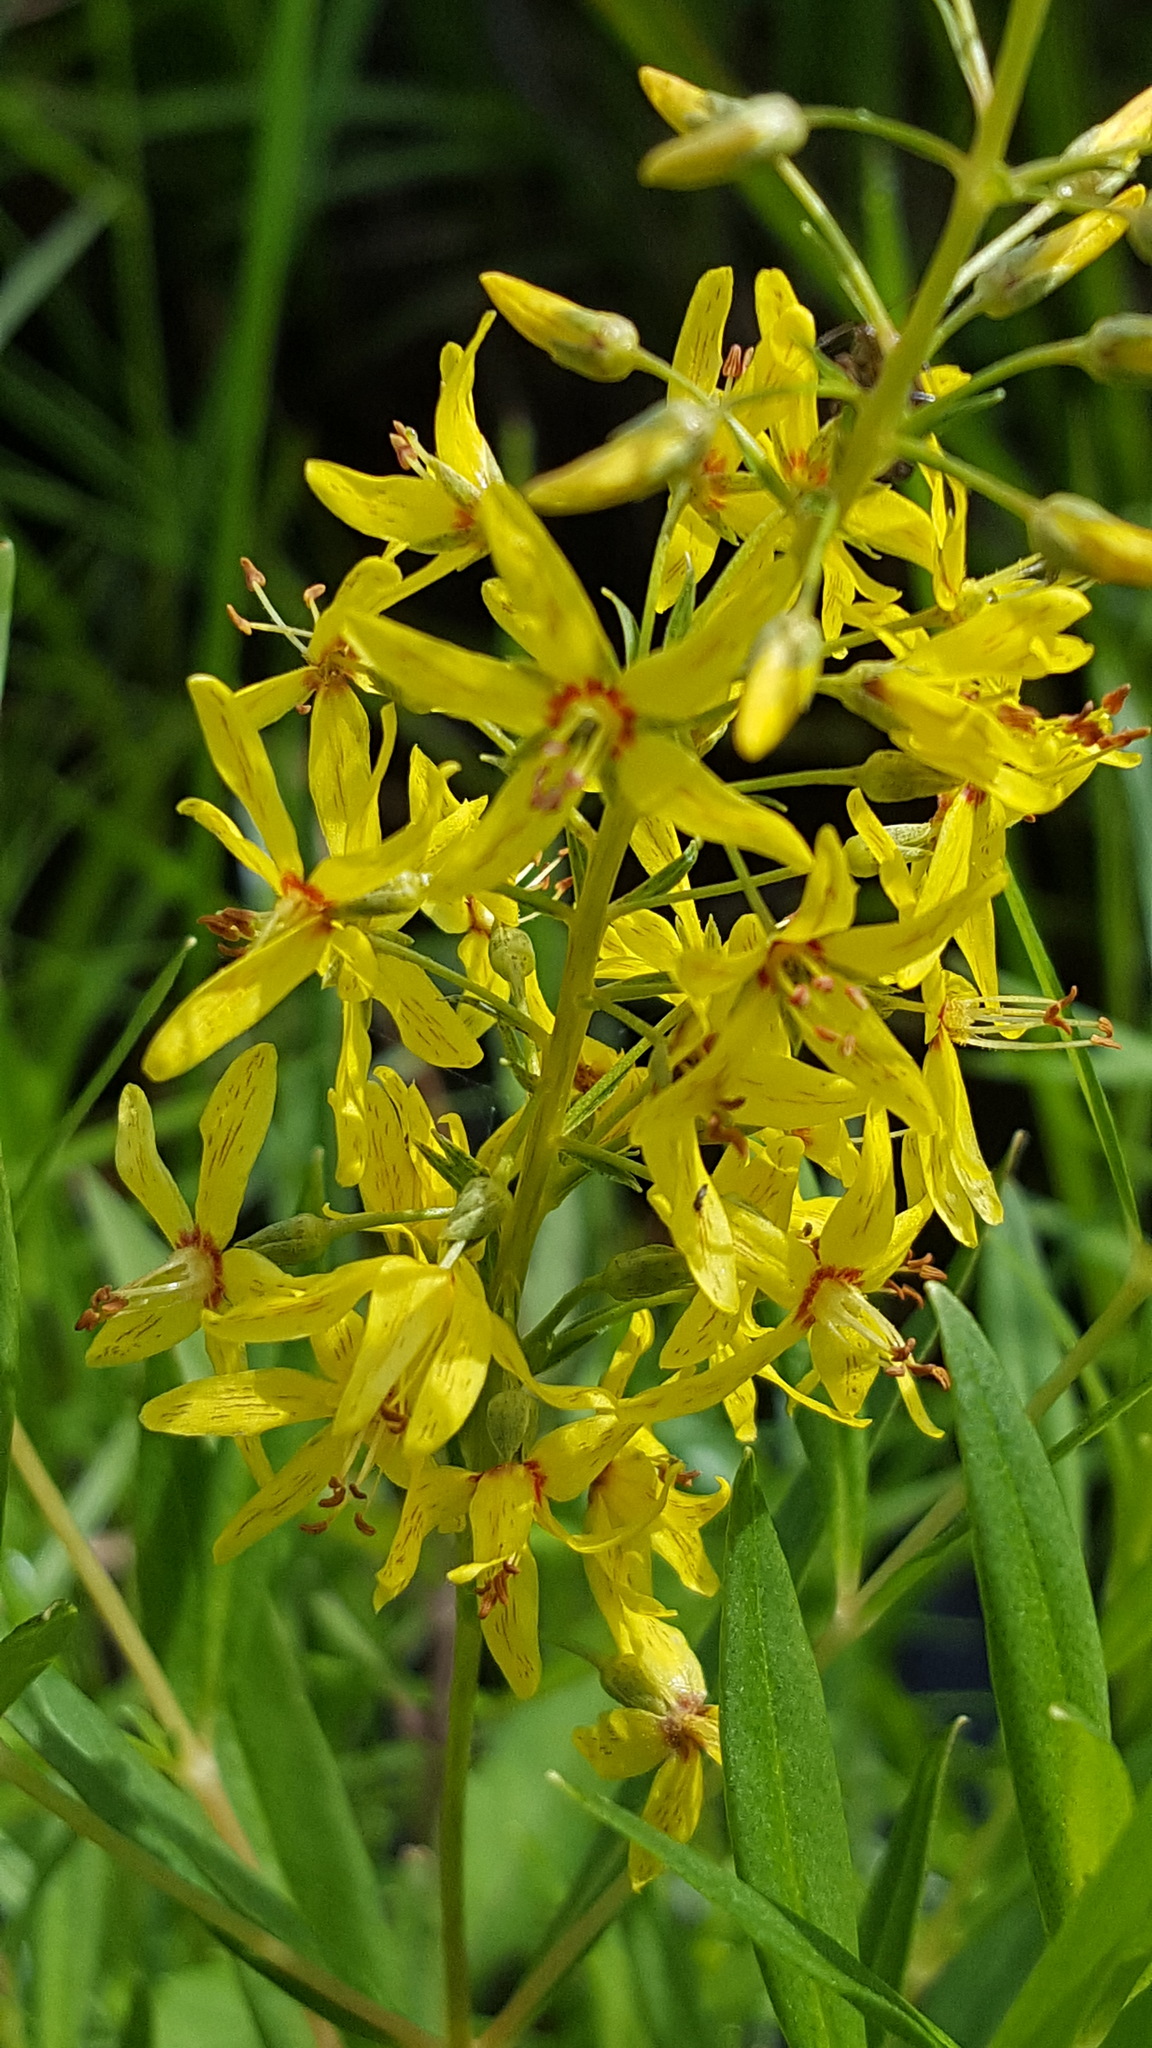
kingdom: Plantae
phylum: Tracheophyta
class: Magnoliopsida
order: Ericales
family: Primulaceae
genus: Lysimachia
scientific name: Lysimachia terrestris
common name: Lake loosestrife
